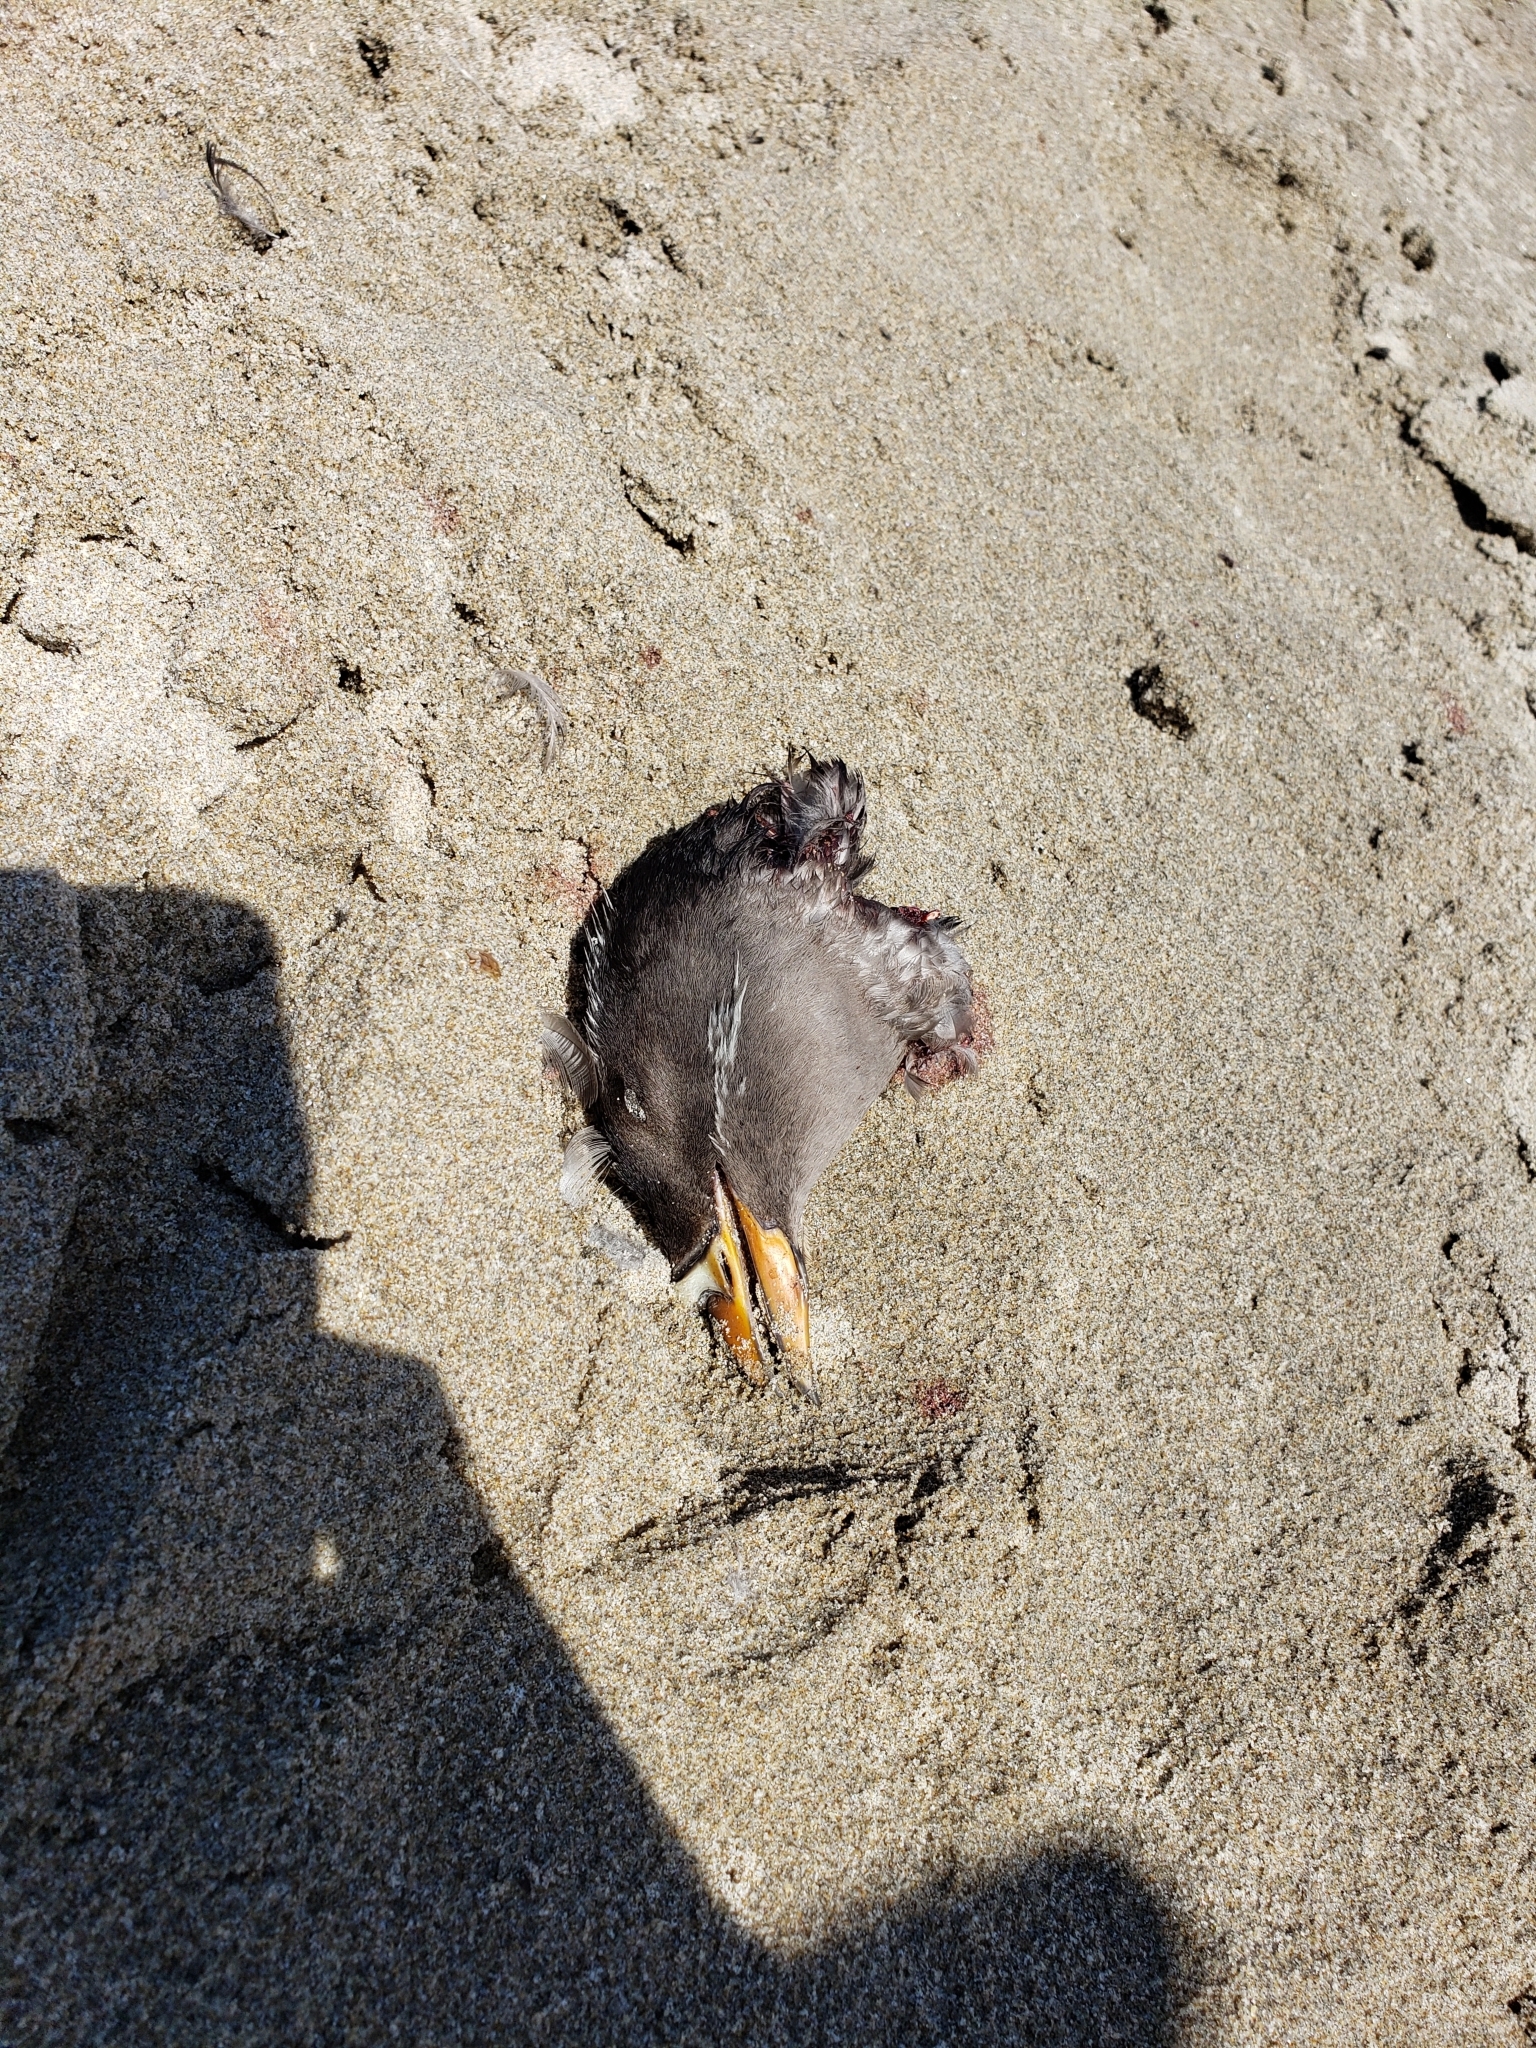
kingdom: Animalia
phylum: Chordata
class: Aves
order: Charadriiformes
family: Alcidae
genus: Cerorhinca
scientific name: Cerorhinca monocerata
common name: Rhinoceros auklet
